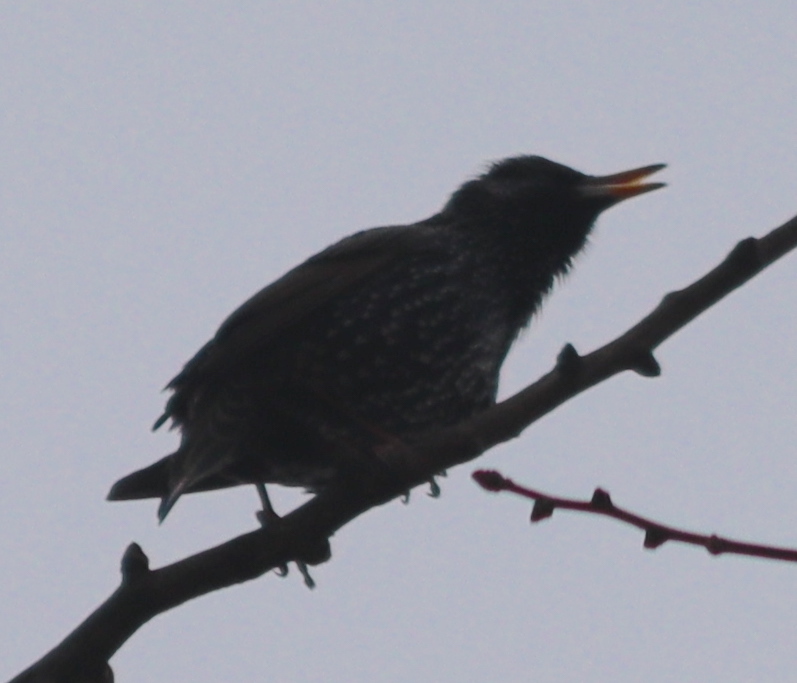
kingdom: Animalia
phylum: Chordata
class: Aves
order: Passeriformes
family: Sturnidae
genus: Sturnus
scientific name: Sturnus vulgaris
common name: Common starling
